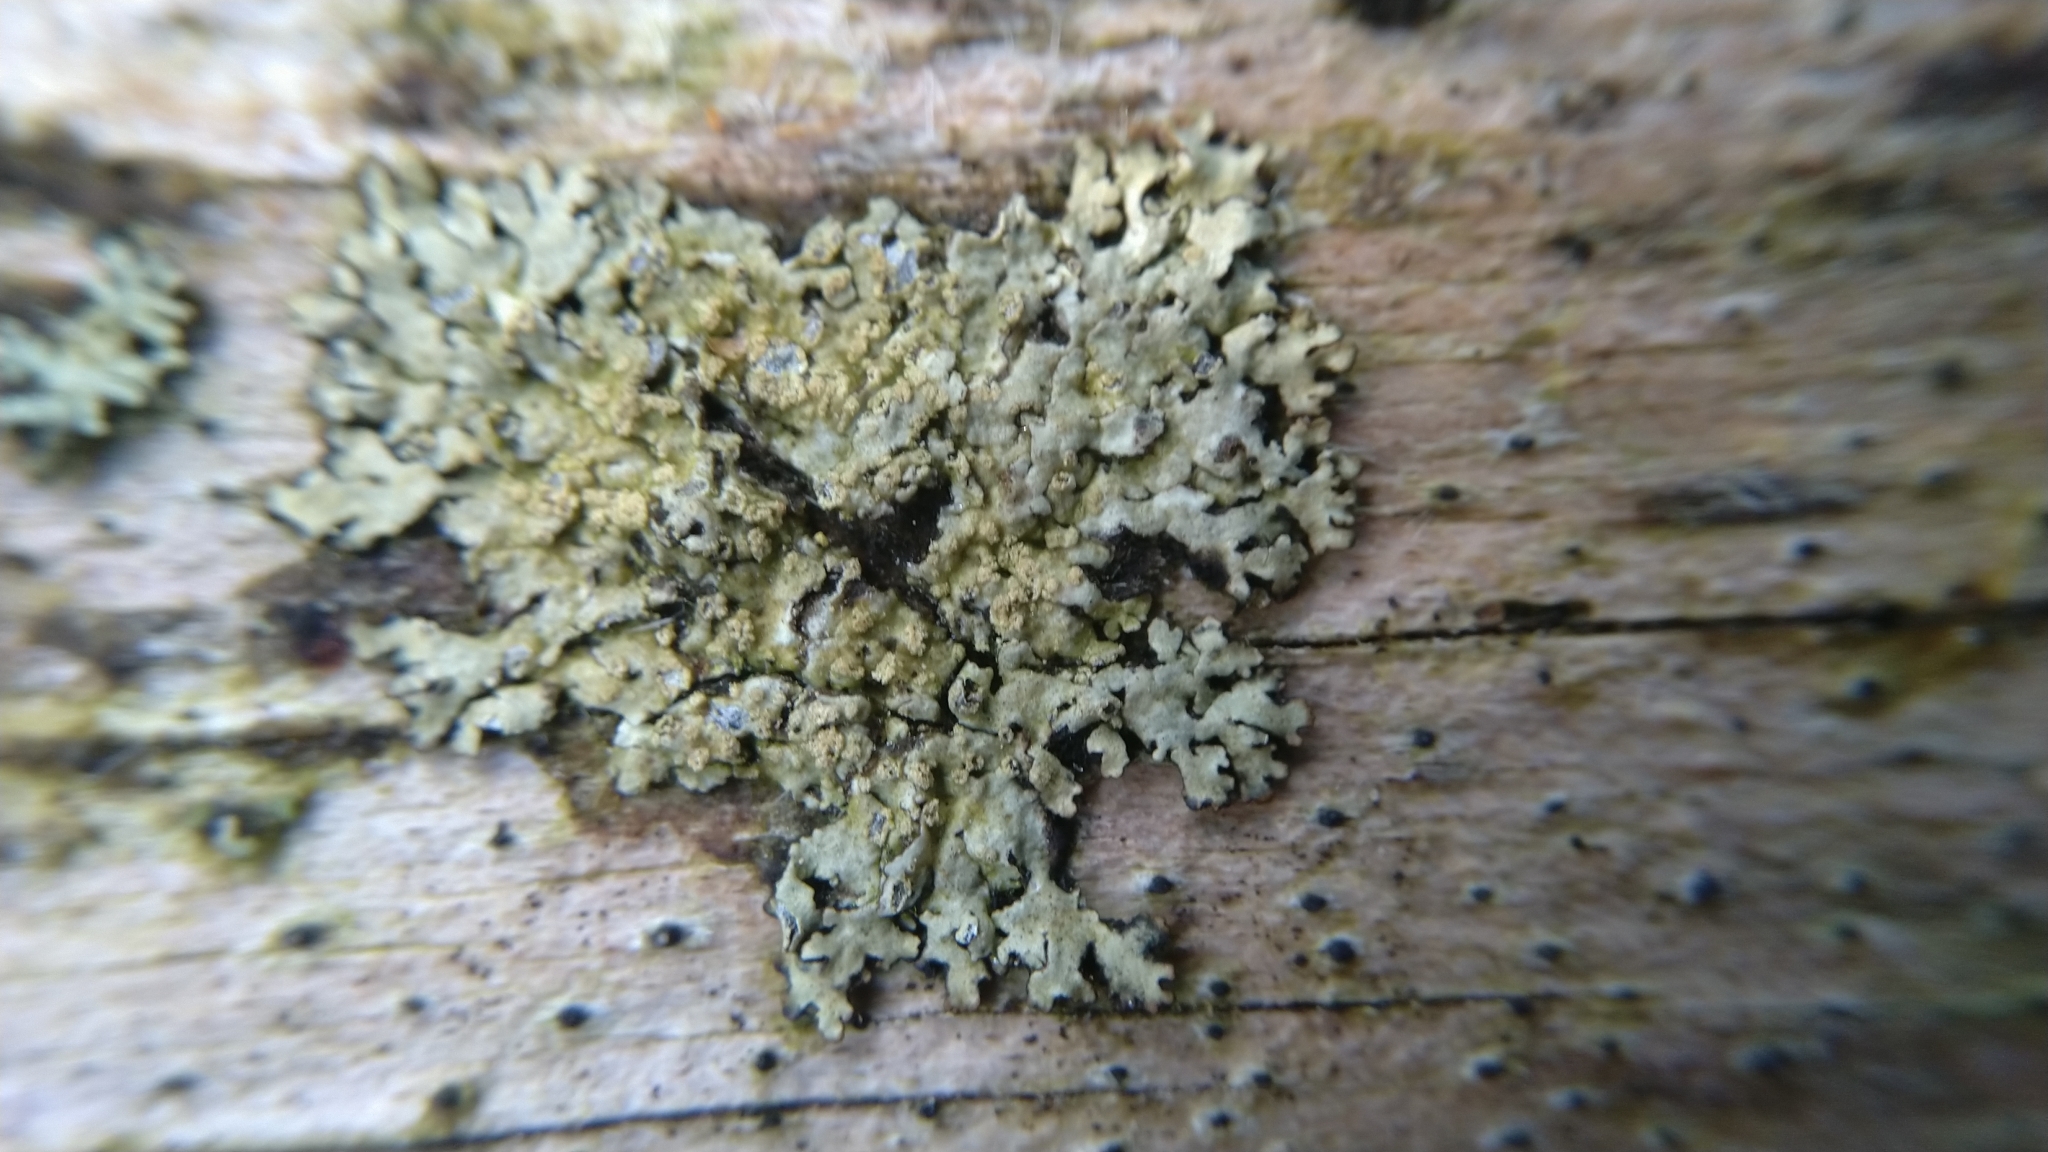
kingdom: Fungi
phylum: Ascomycota
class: Lecanoromycetes
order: Lecanorales
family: Parmeliaceae
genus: Parmeliopsis
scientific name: Parmeliopsis ambigua
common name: Green starburst lichen
